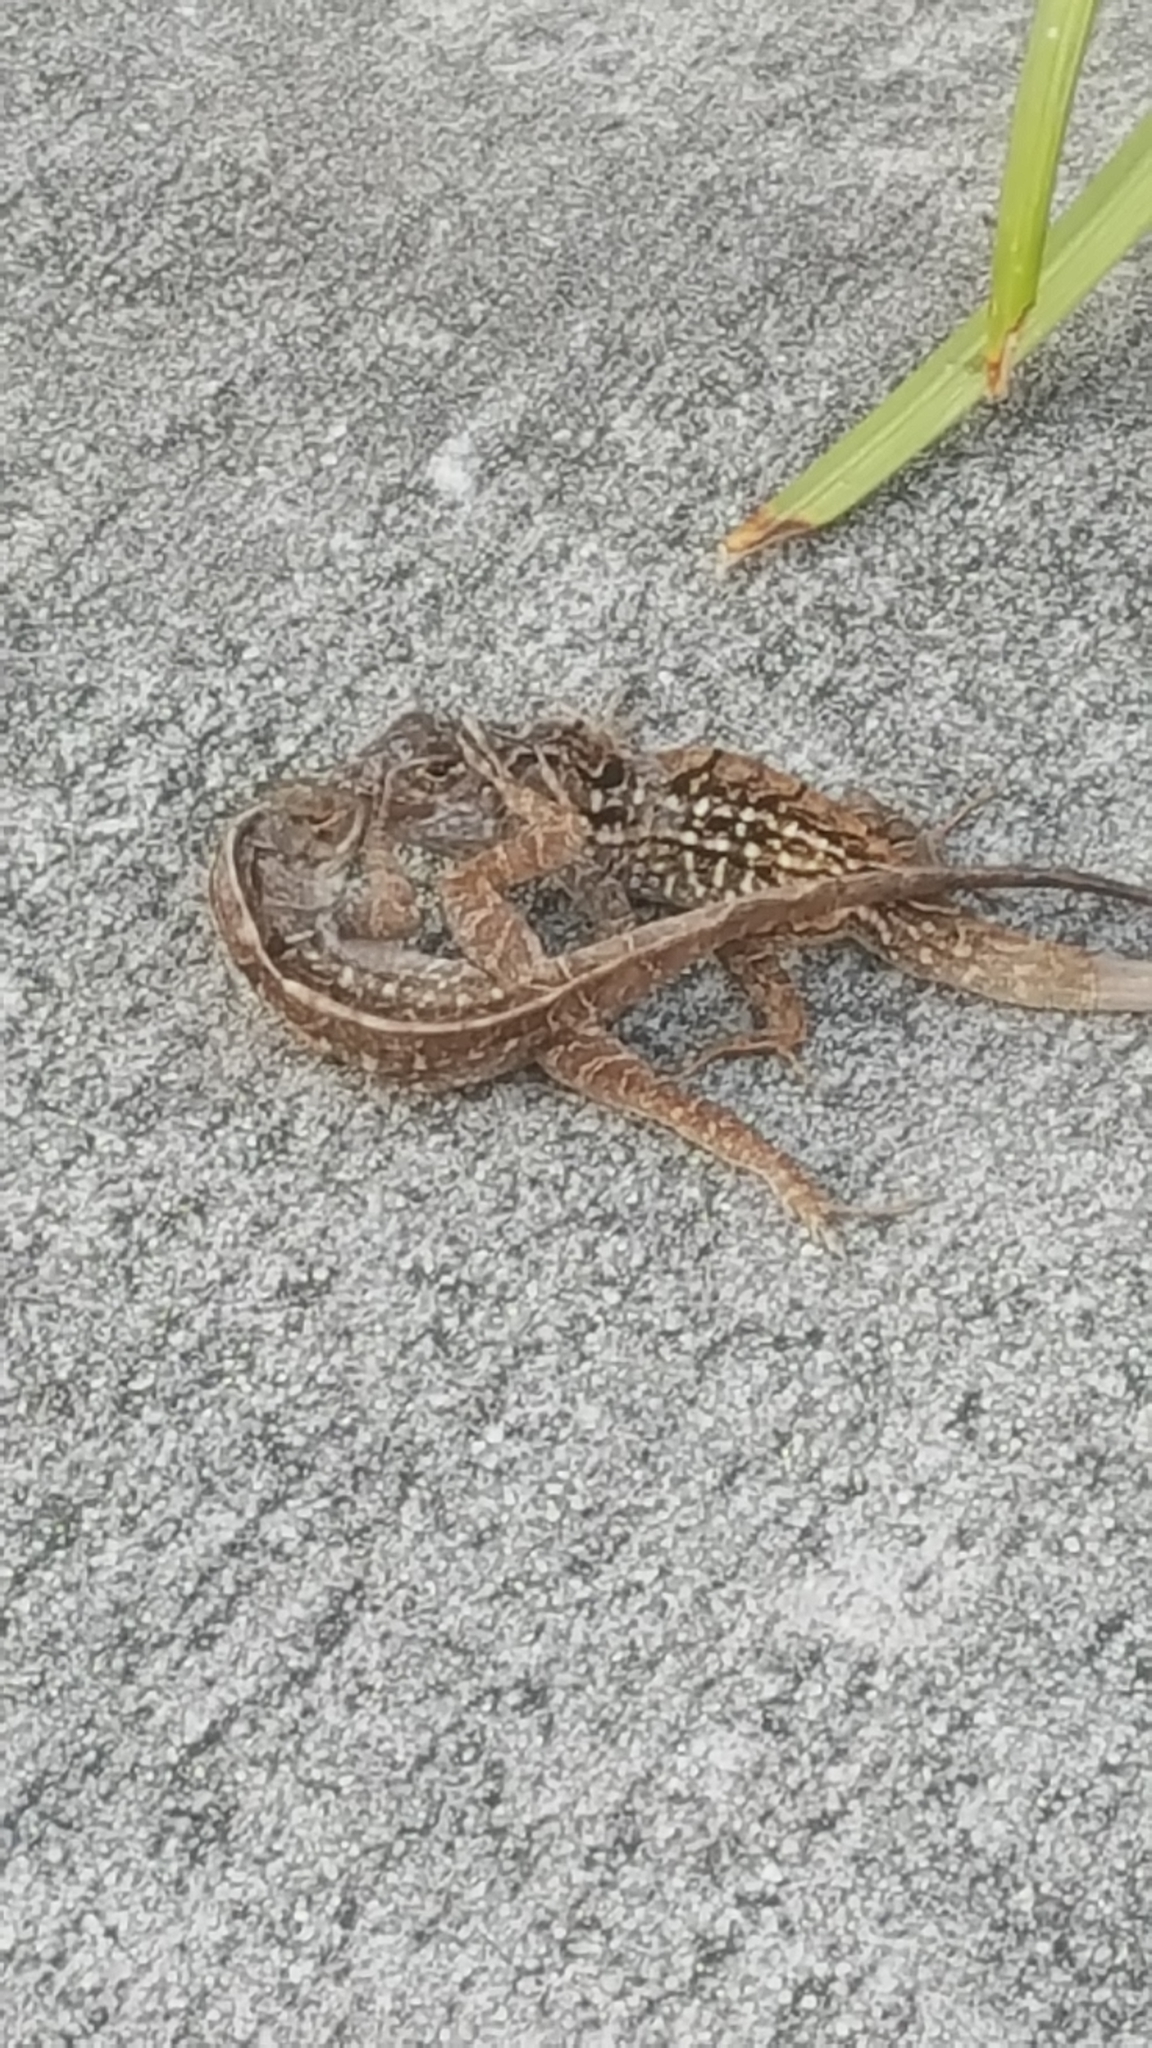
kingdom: Animalia
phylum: Chordata
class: Squamata
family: Dactyloidae
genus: Anolis
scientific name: Anolis sagrei
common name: Brown anole
